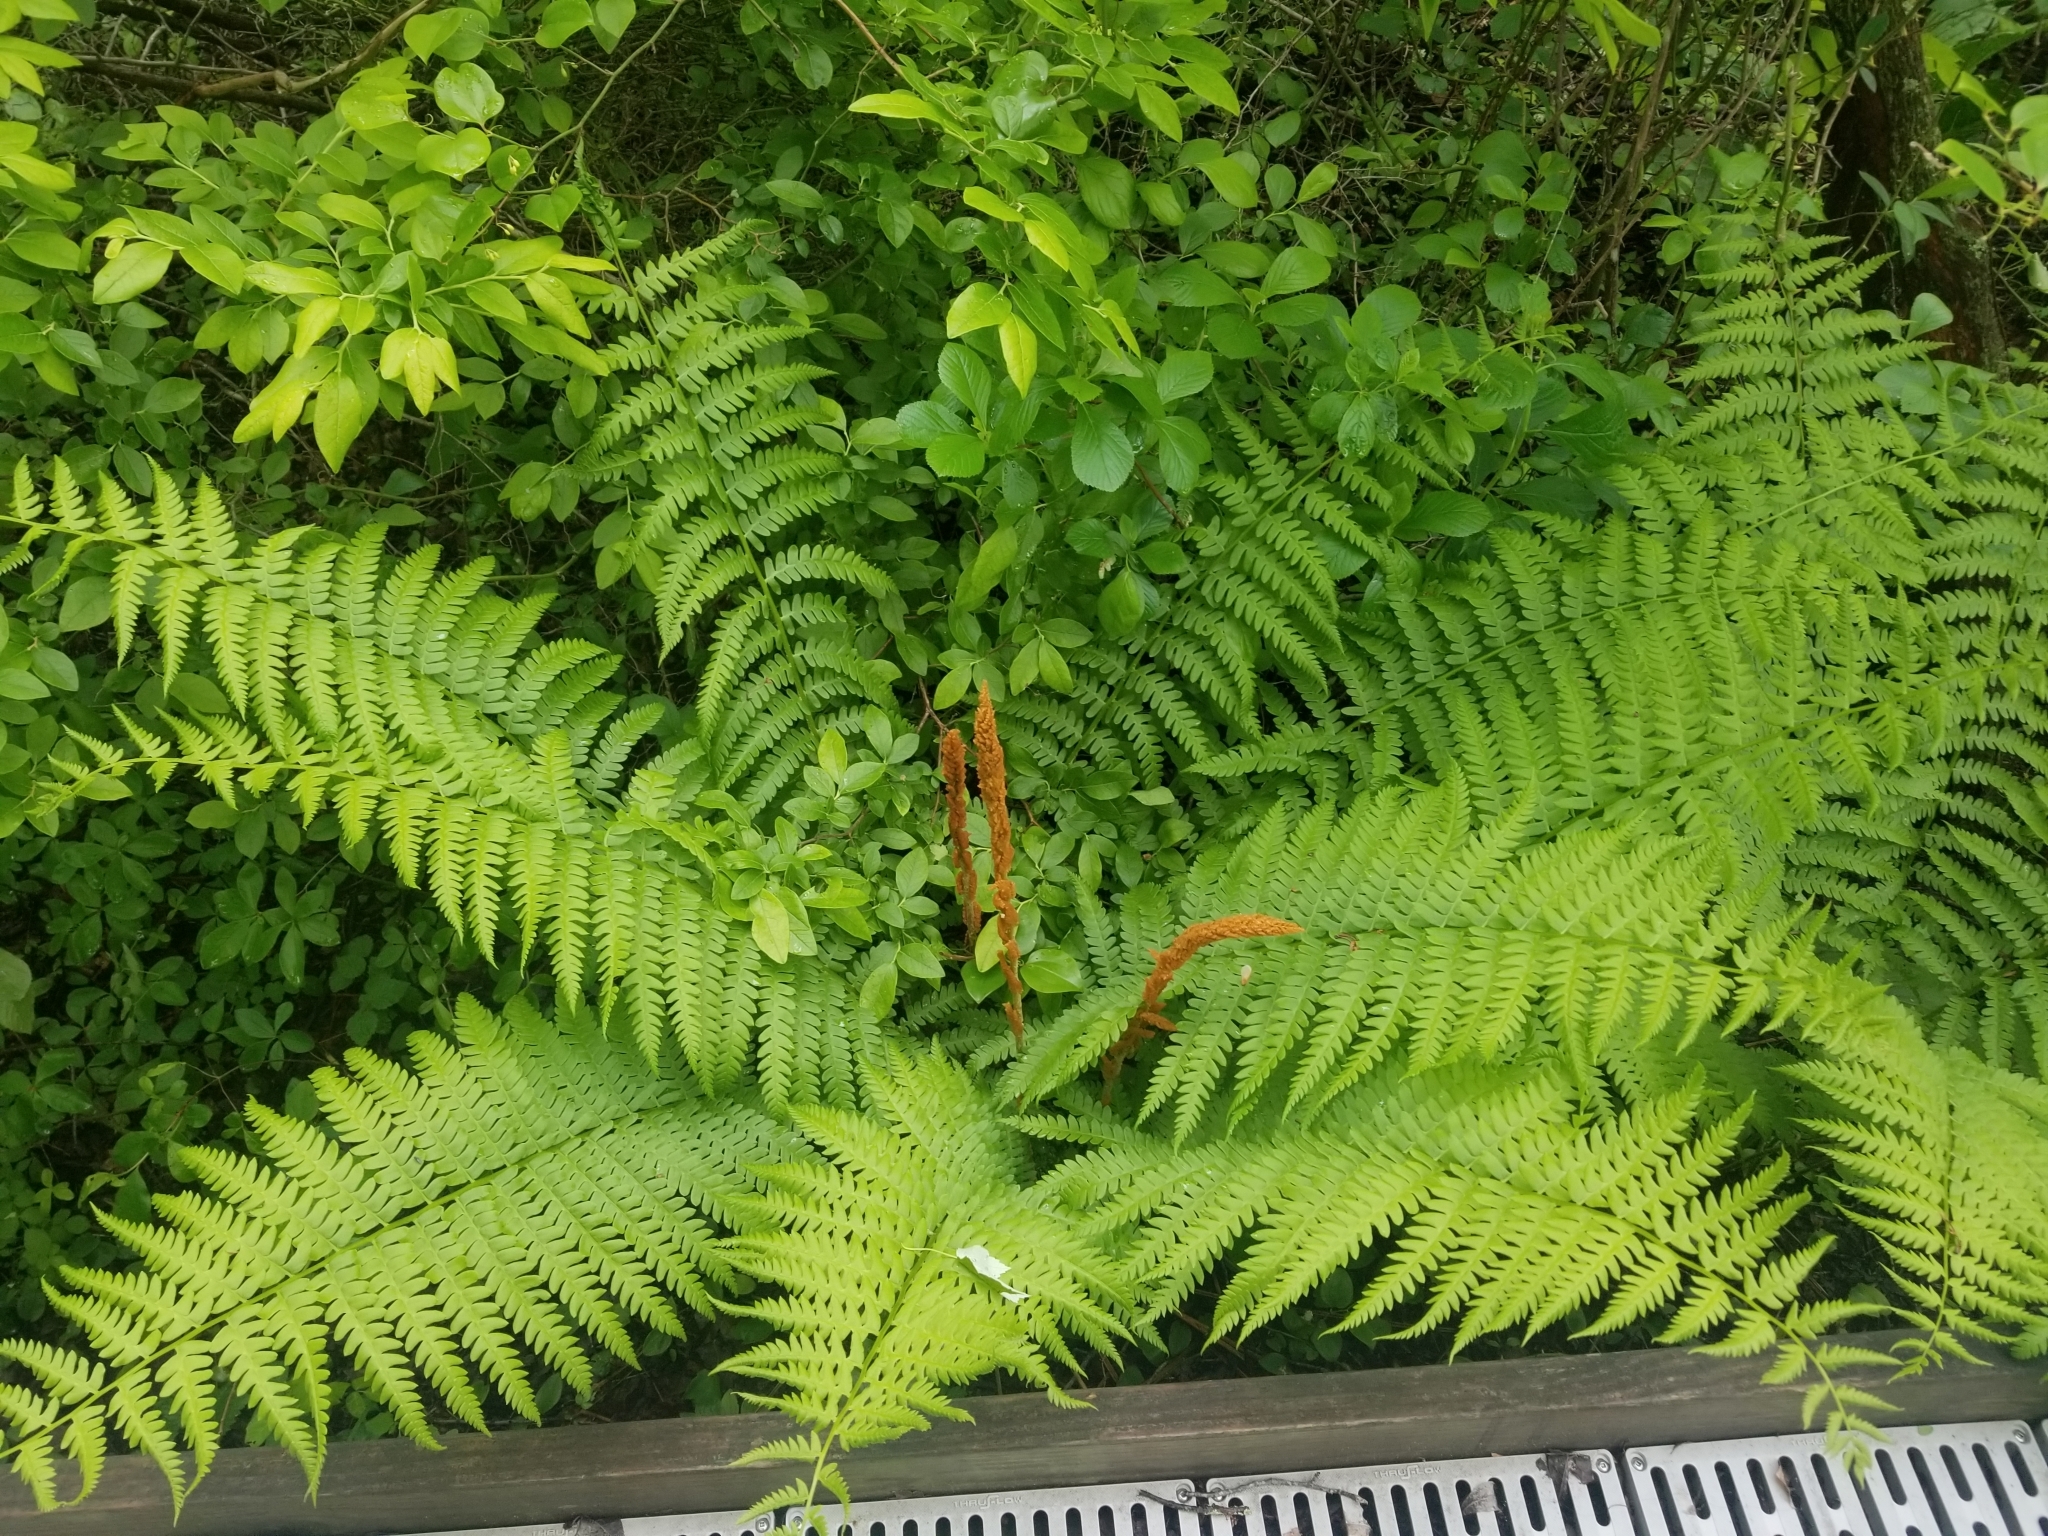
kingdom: Plantae
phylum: Tracheophyta
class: Polypodiopsida
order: Osmundales
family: Osmundaceae
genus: Osmundastrum
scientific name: Osmundastrum cinnamomeum
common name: Cinnamon fern
